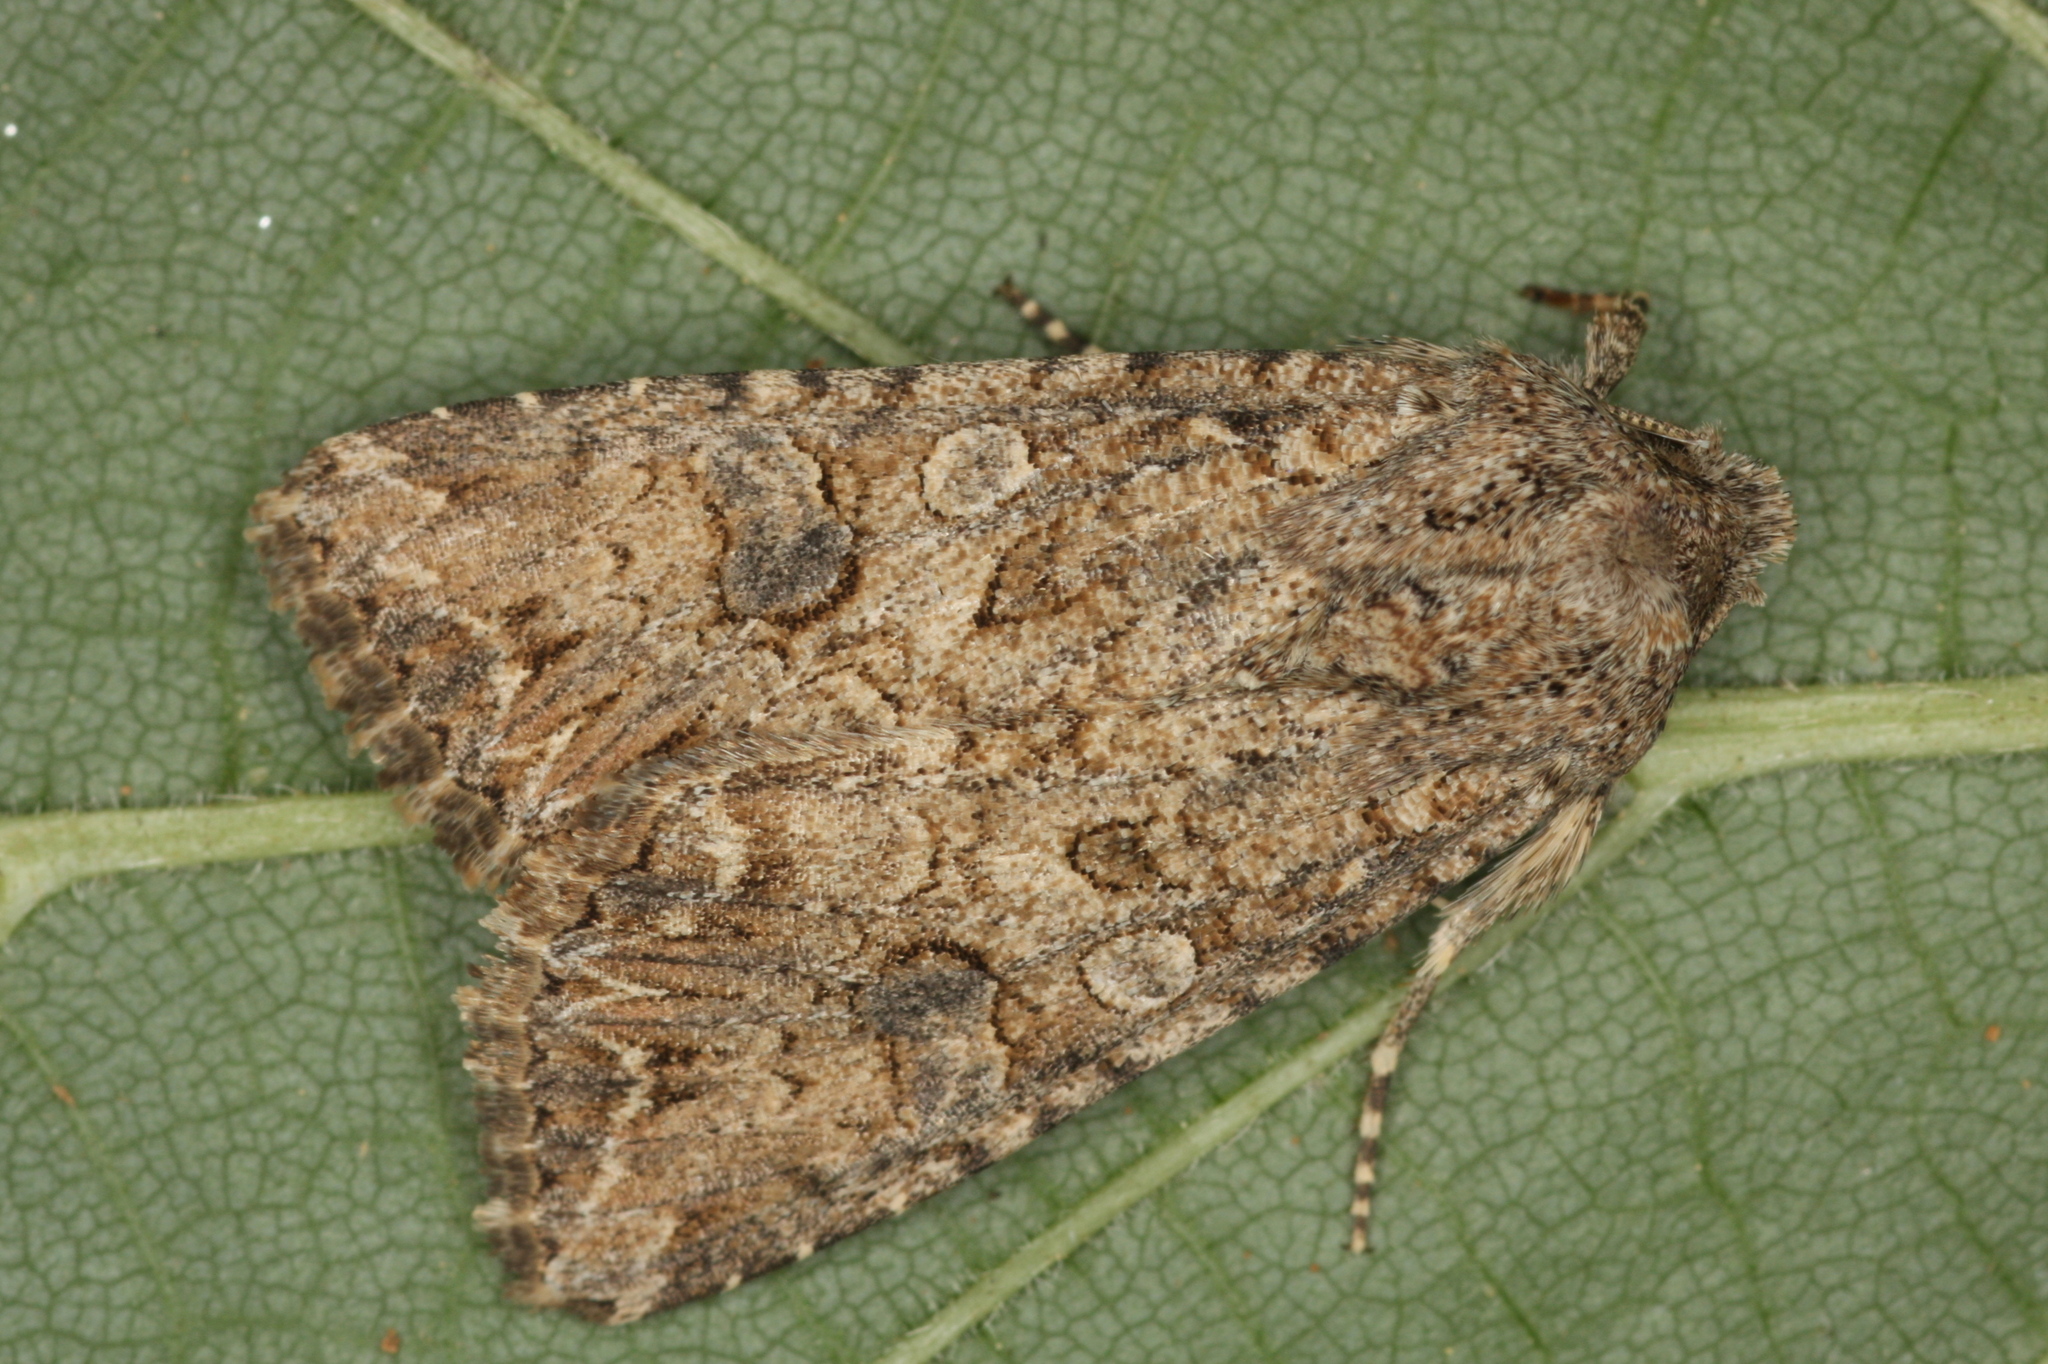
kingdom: Animalia
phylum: Arthropoda
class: Insecta
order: Lepidoptera
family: Noctuidae
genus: Anarta
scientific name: Anarta trifolii
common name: Clover cutworm moth
